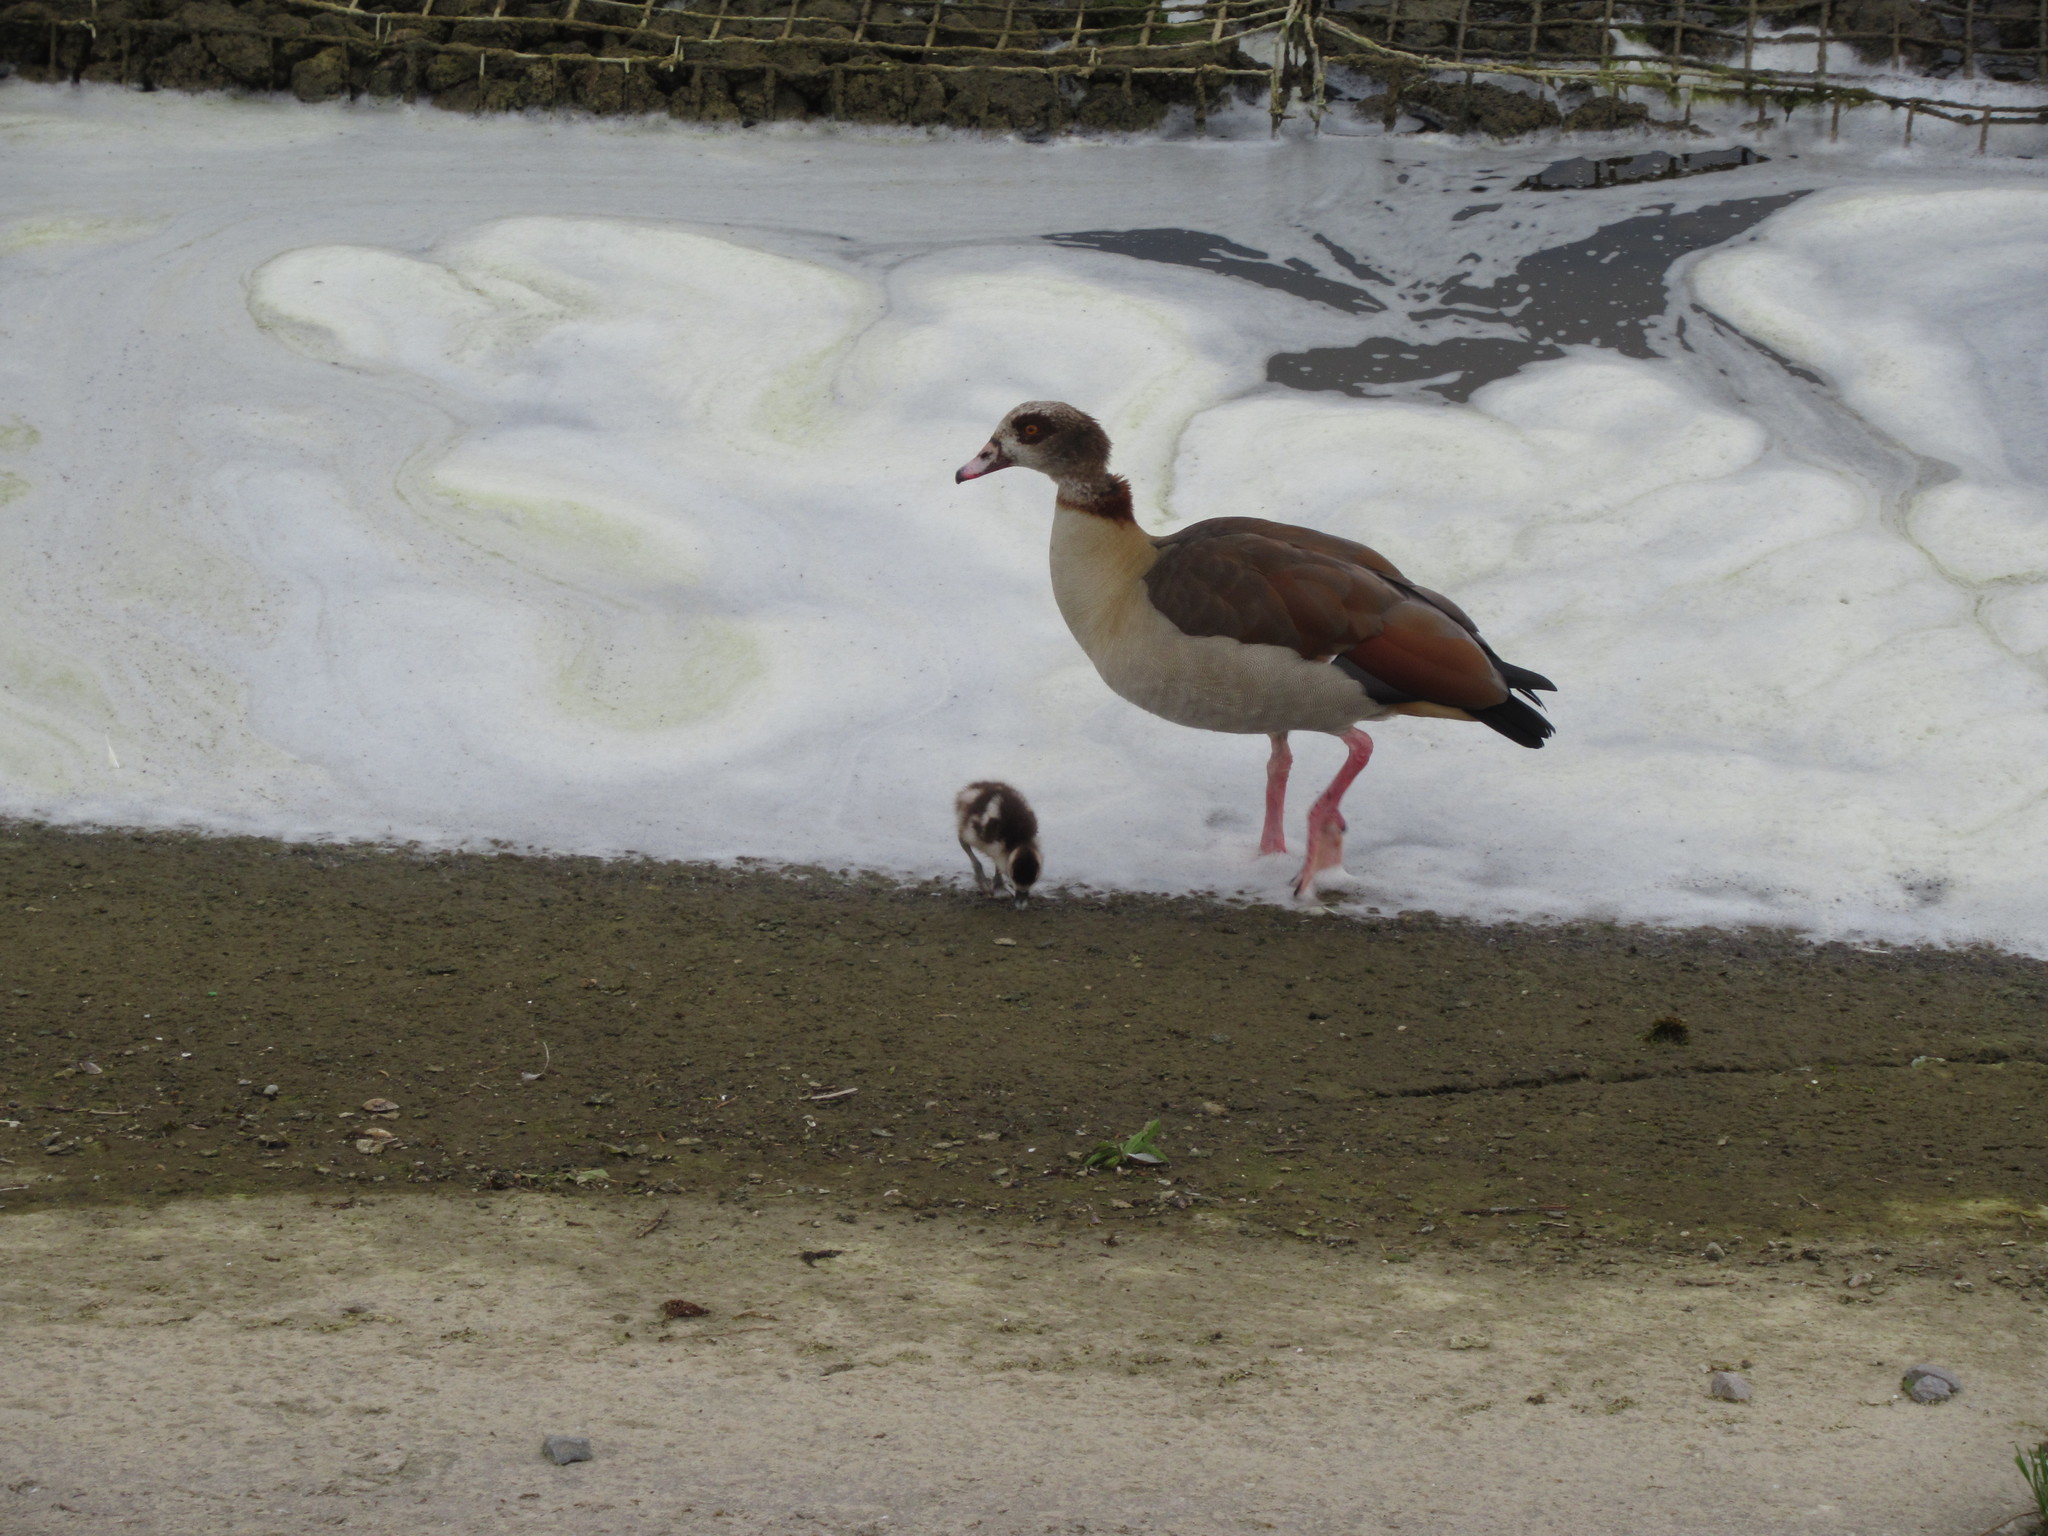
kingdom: Animalia
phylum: Chordata
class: Aves
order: Anseriformes
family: Anatidae
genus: Alopochen
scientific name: Alopochen aegyptiaca
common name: Egyptian goose
